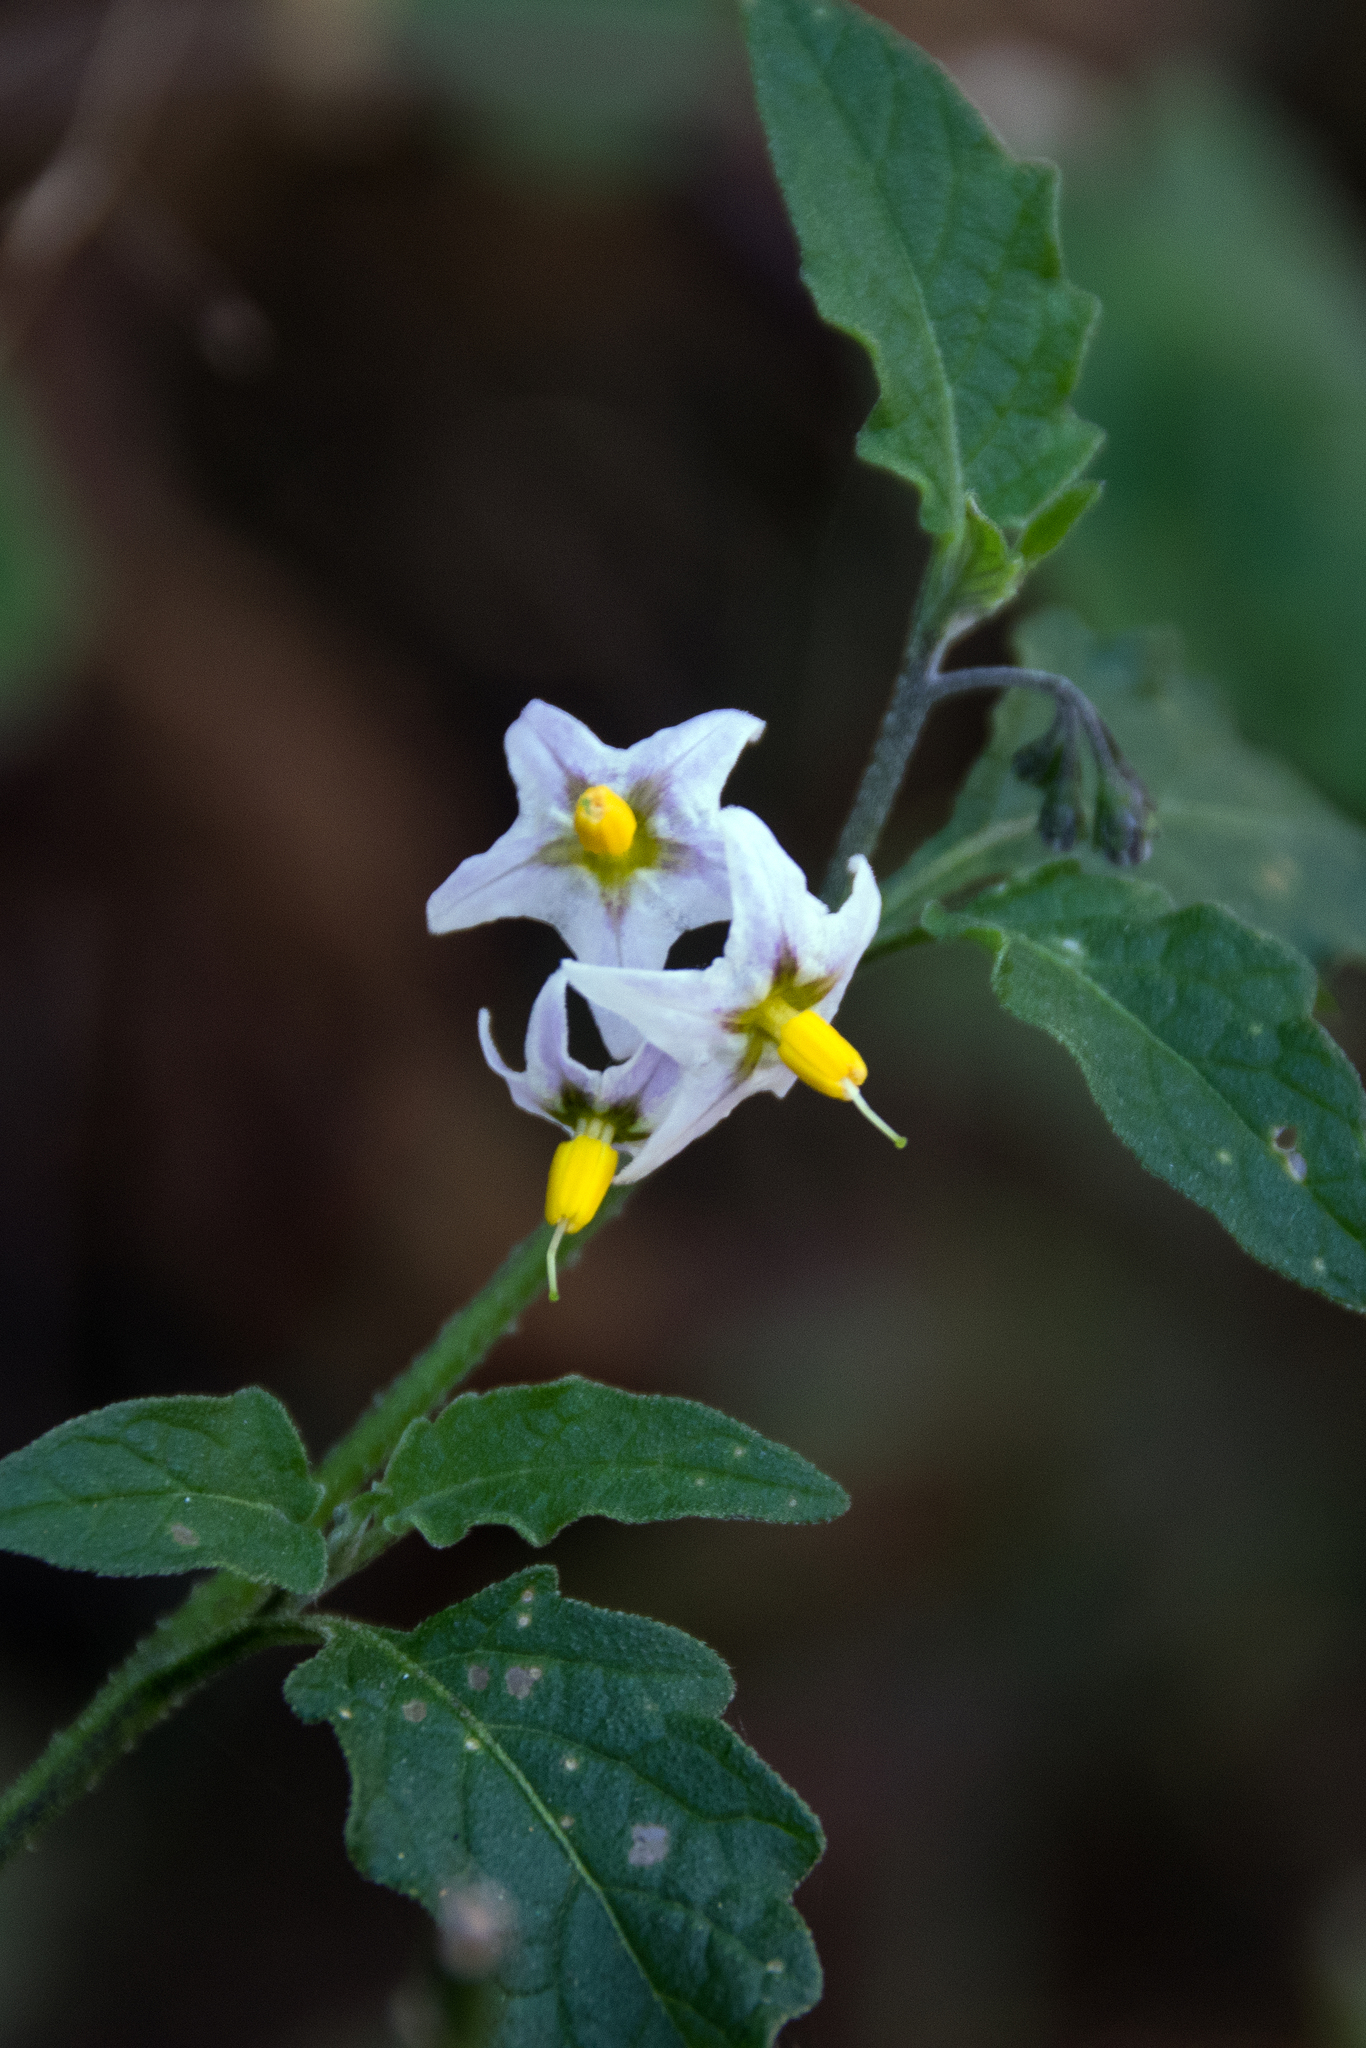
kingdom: Plantae
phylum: Tracheophyta
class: Magnoliopsida
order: Solanales
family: Solanaceae
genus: Solanum
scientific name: Solanum douglasii
